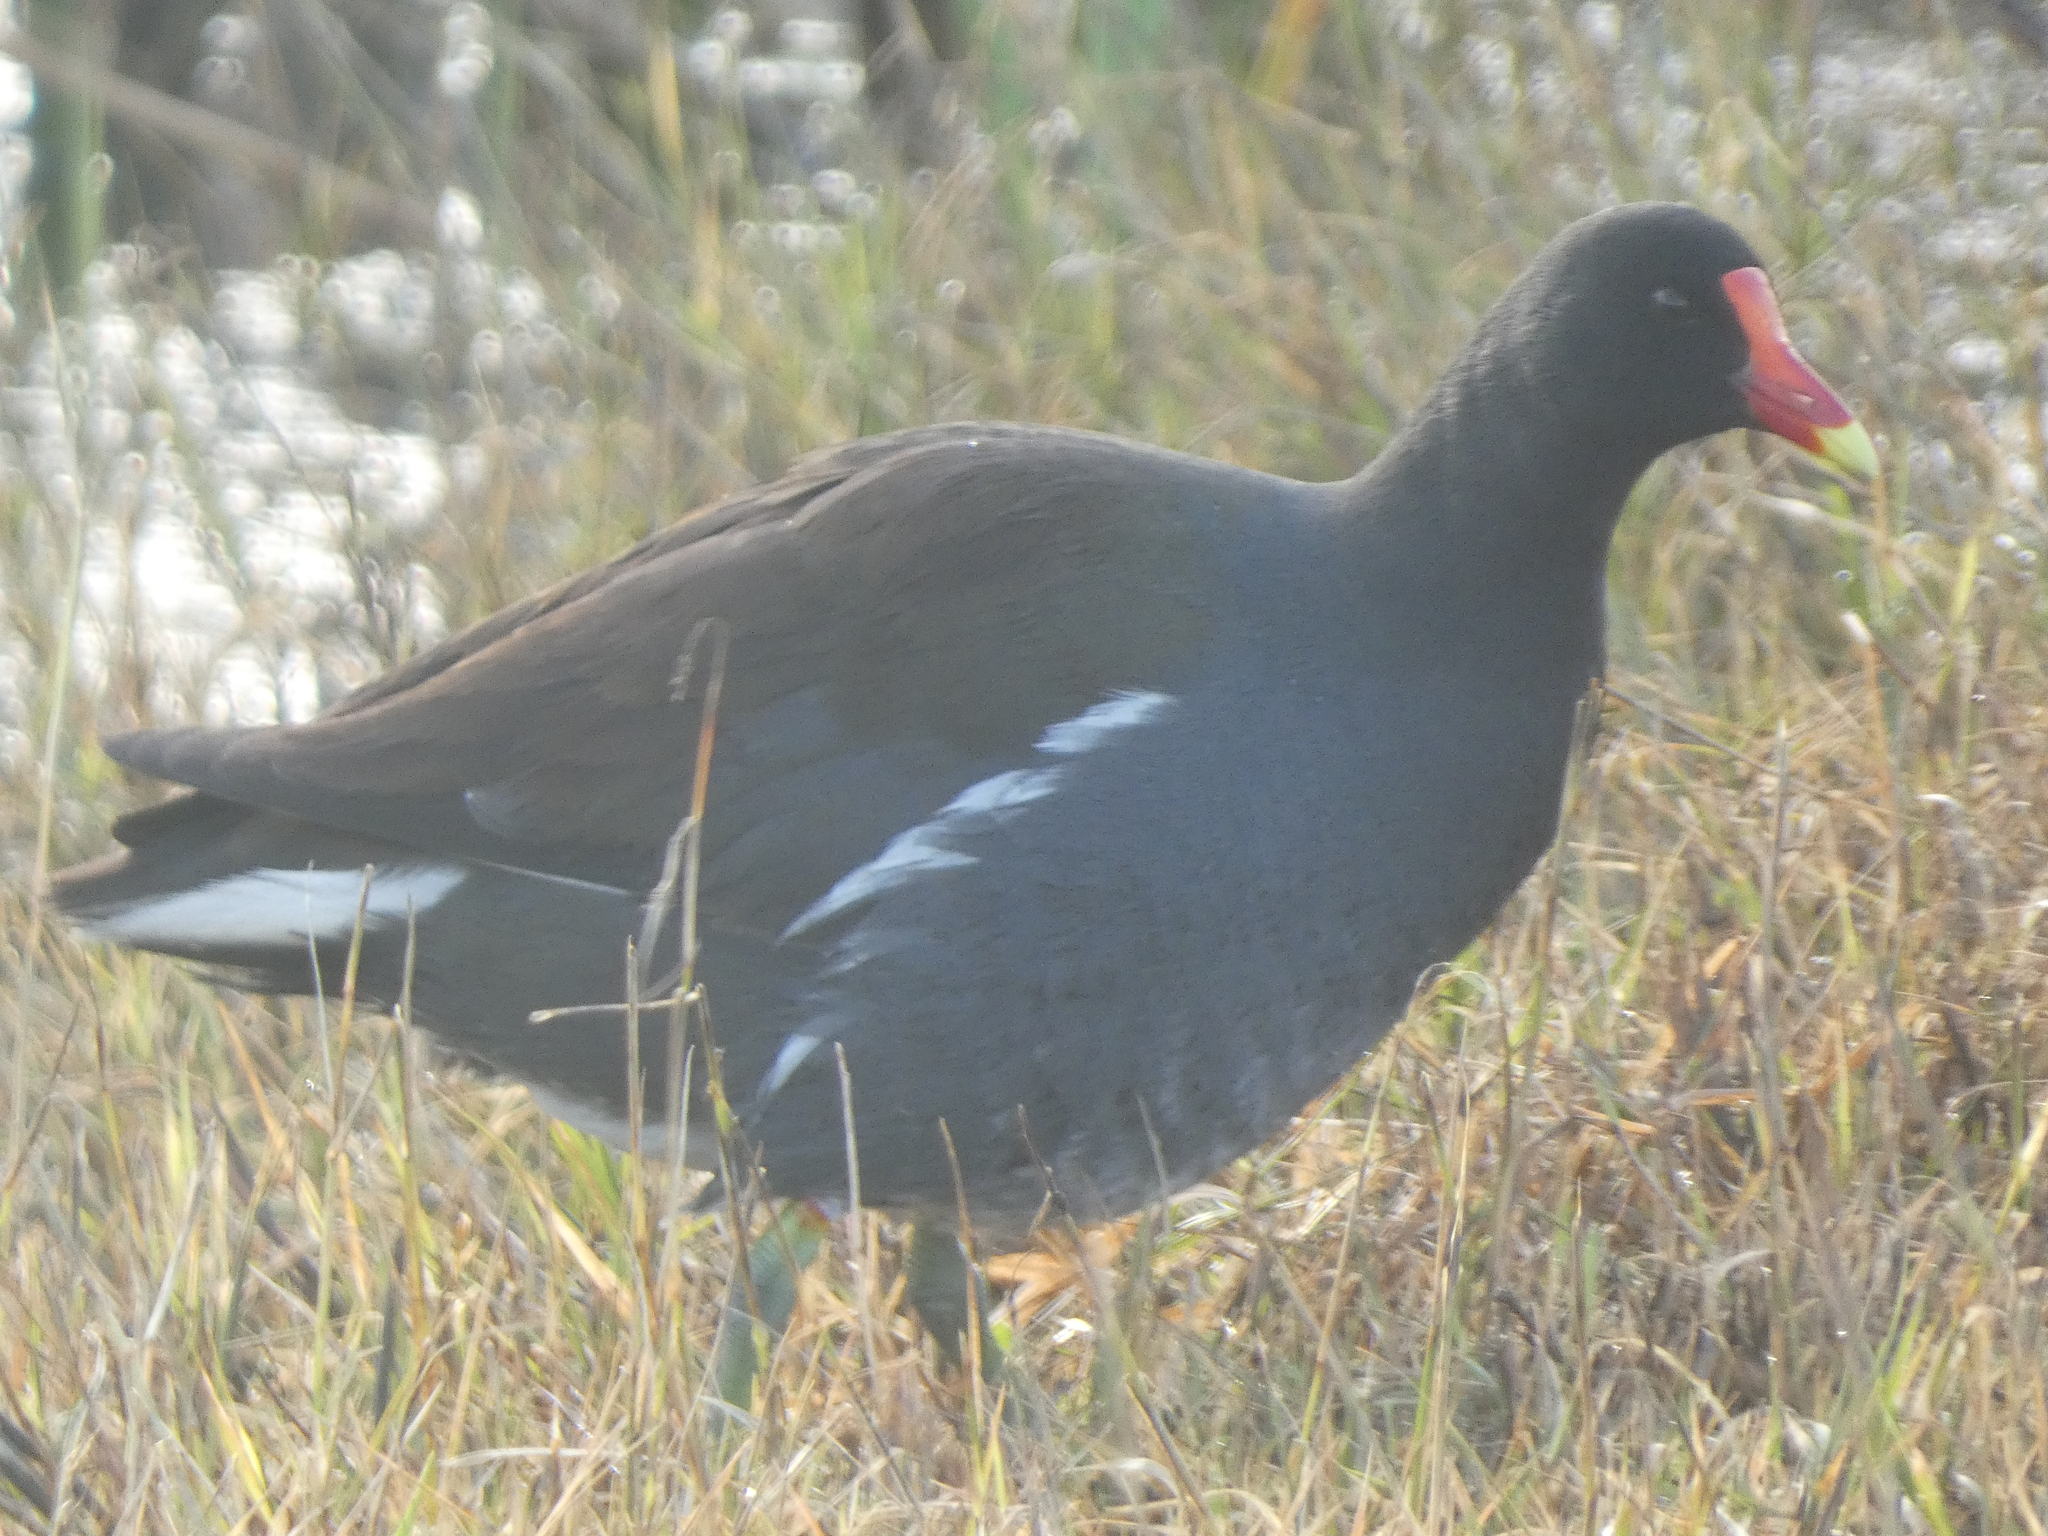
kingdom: Animalia
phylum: Chordata
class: Aves
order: Gruiformes
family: Rallidae
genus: Gallinula
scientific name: Gallinula chloropus
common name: Common moorhen
